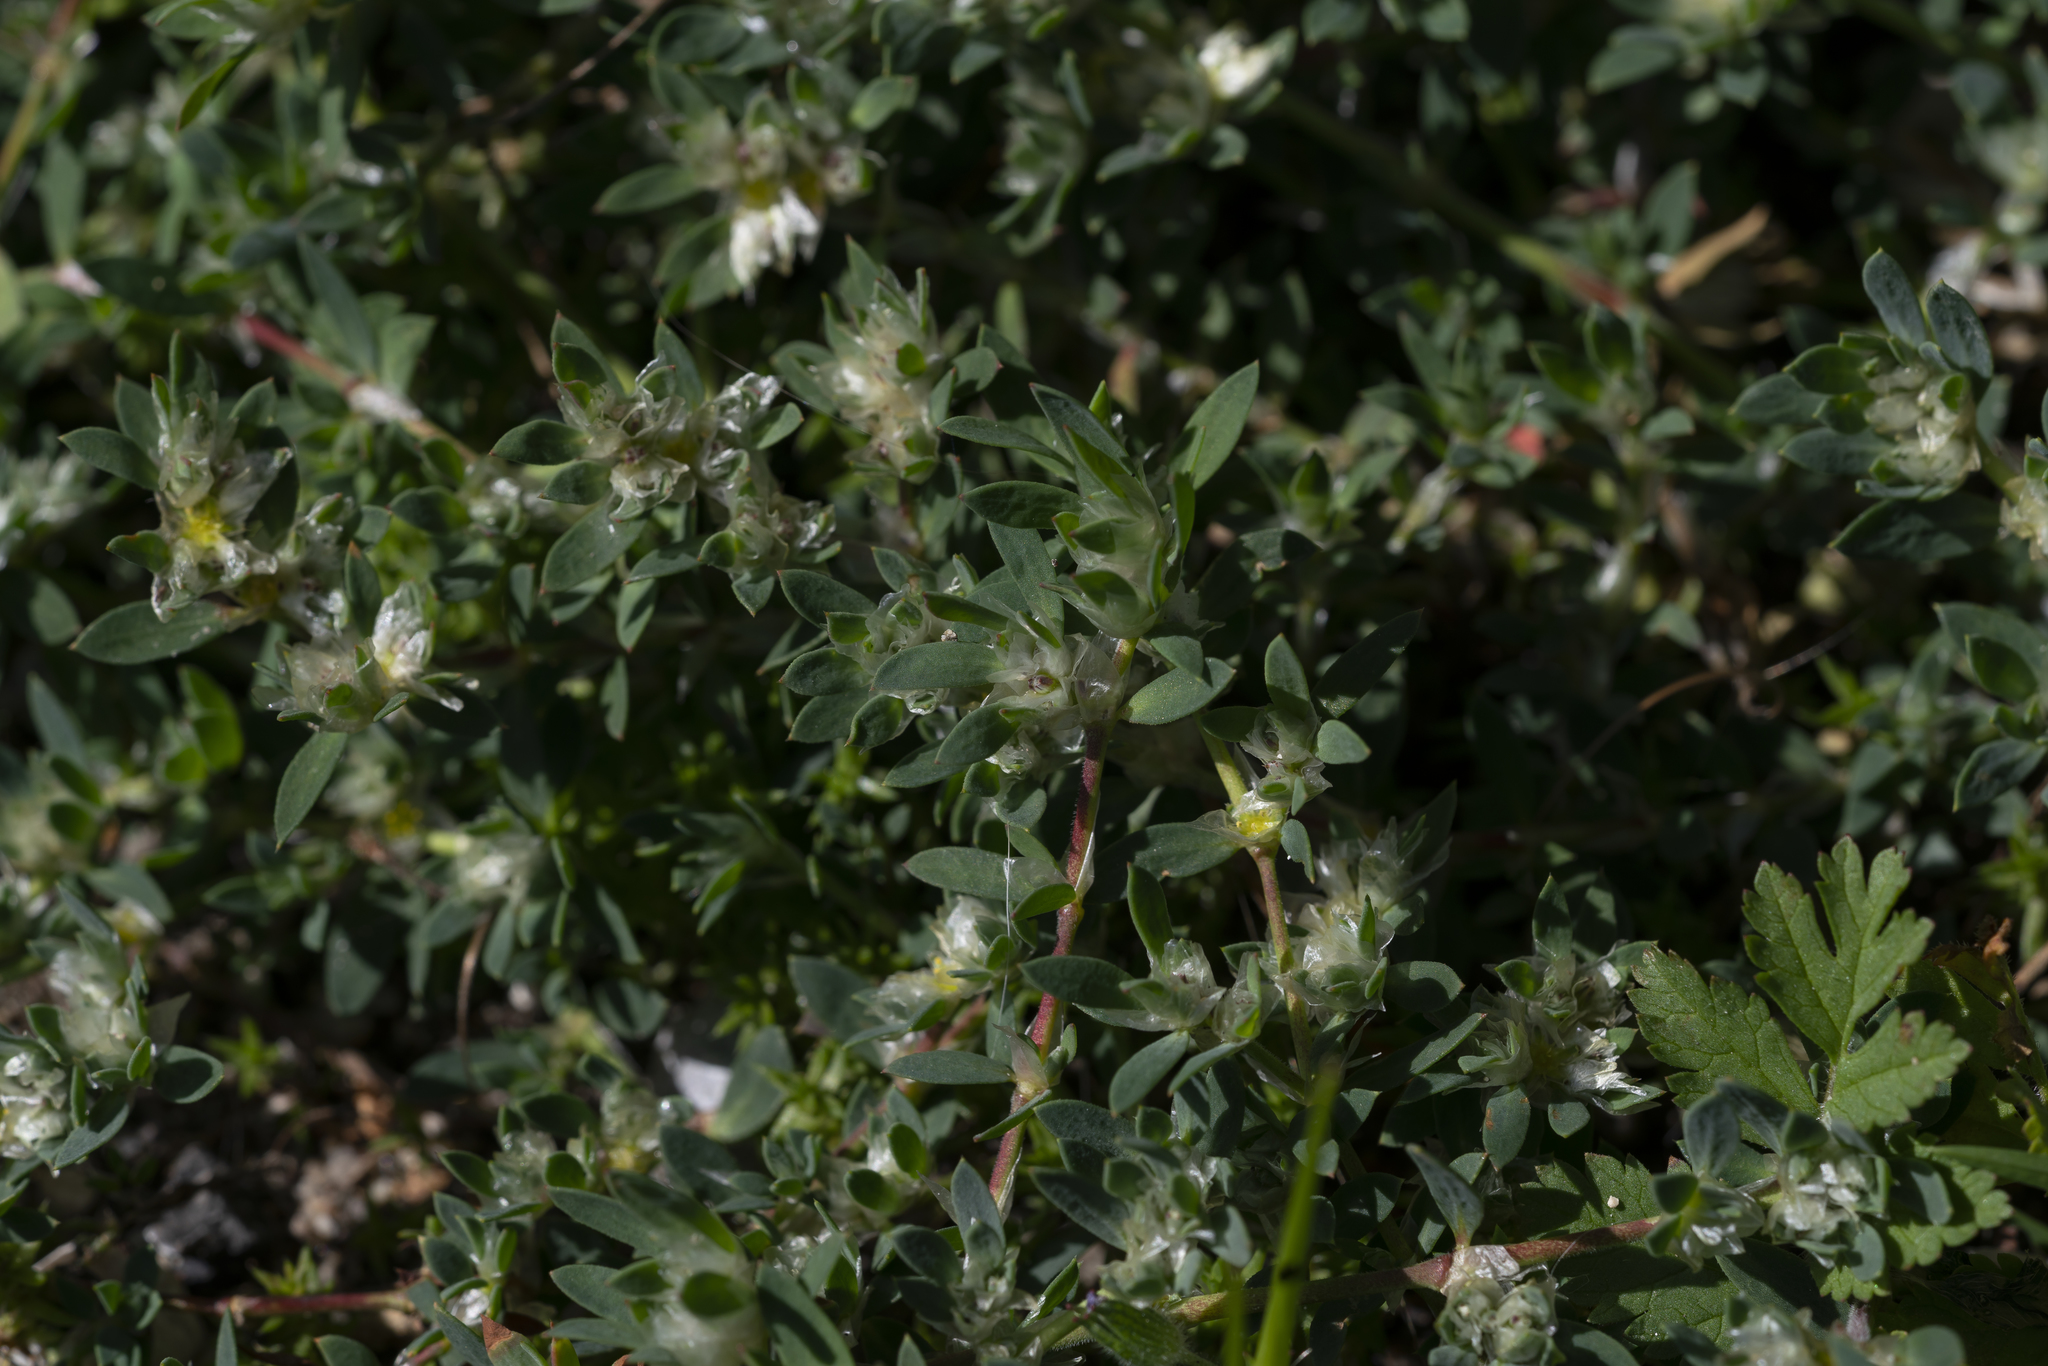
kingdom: Plantae
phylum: Tracheophyta
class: Magnoliopsida
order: Caryophyllales
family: Caryophyllaceae
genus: Paronychia
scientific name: Paronychia argentea
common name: Silver nailroot
